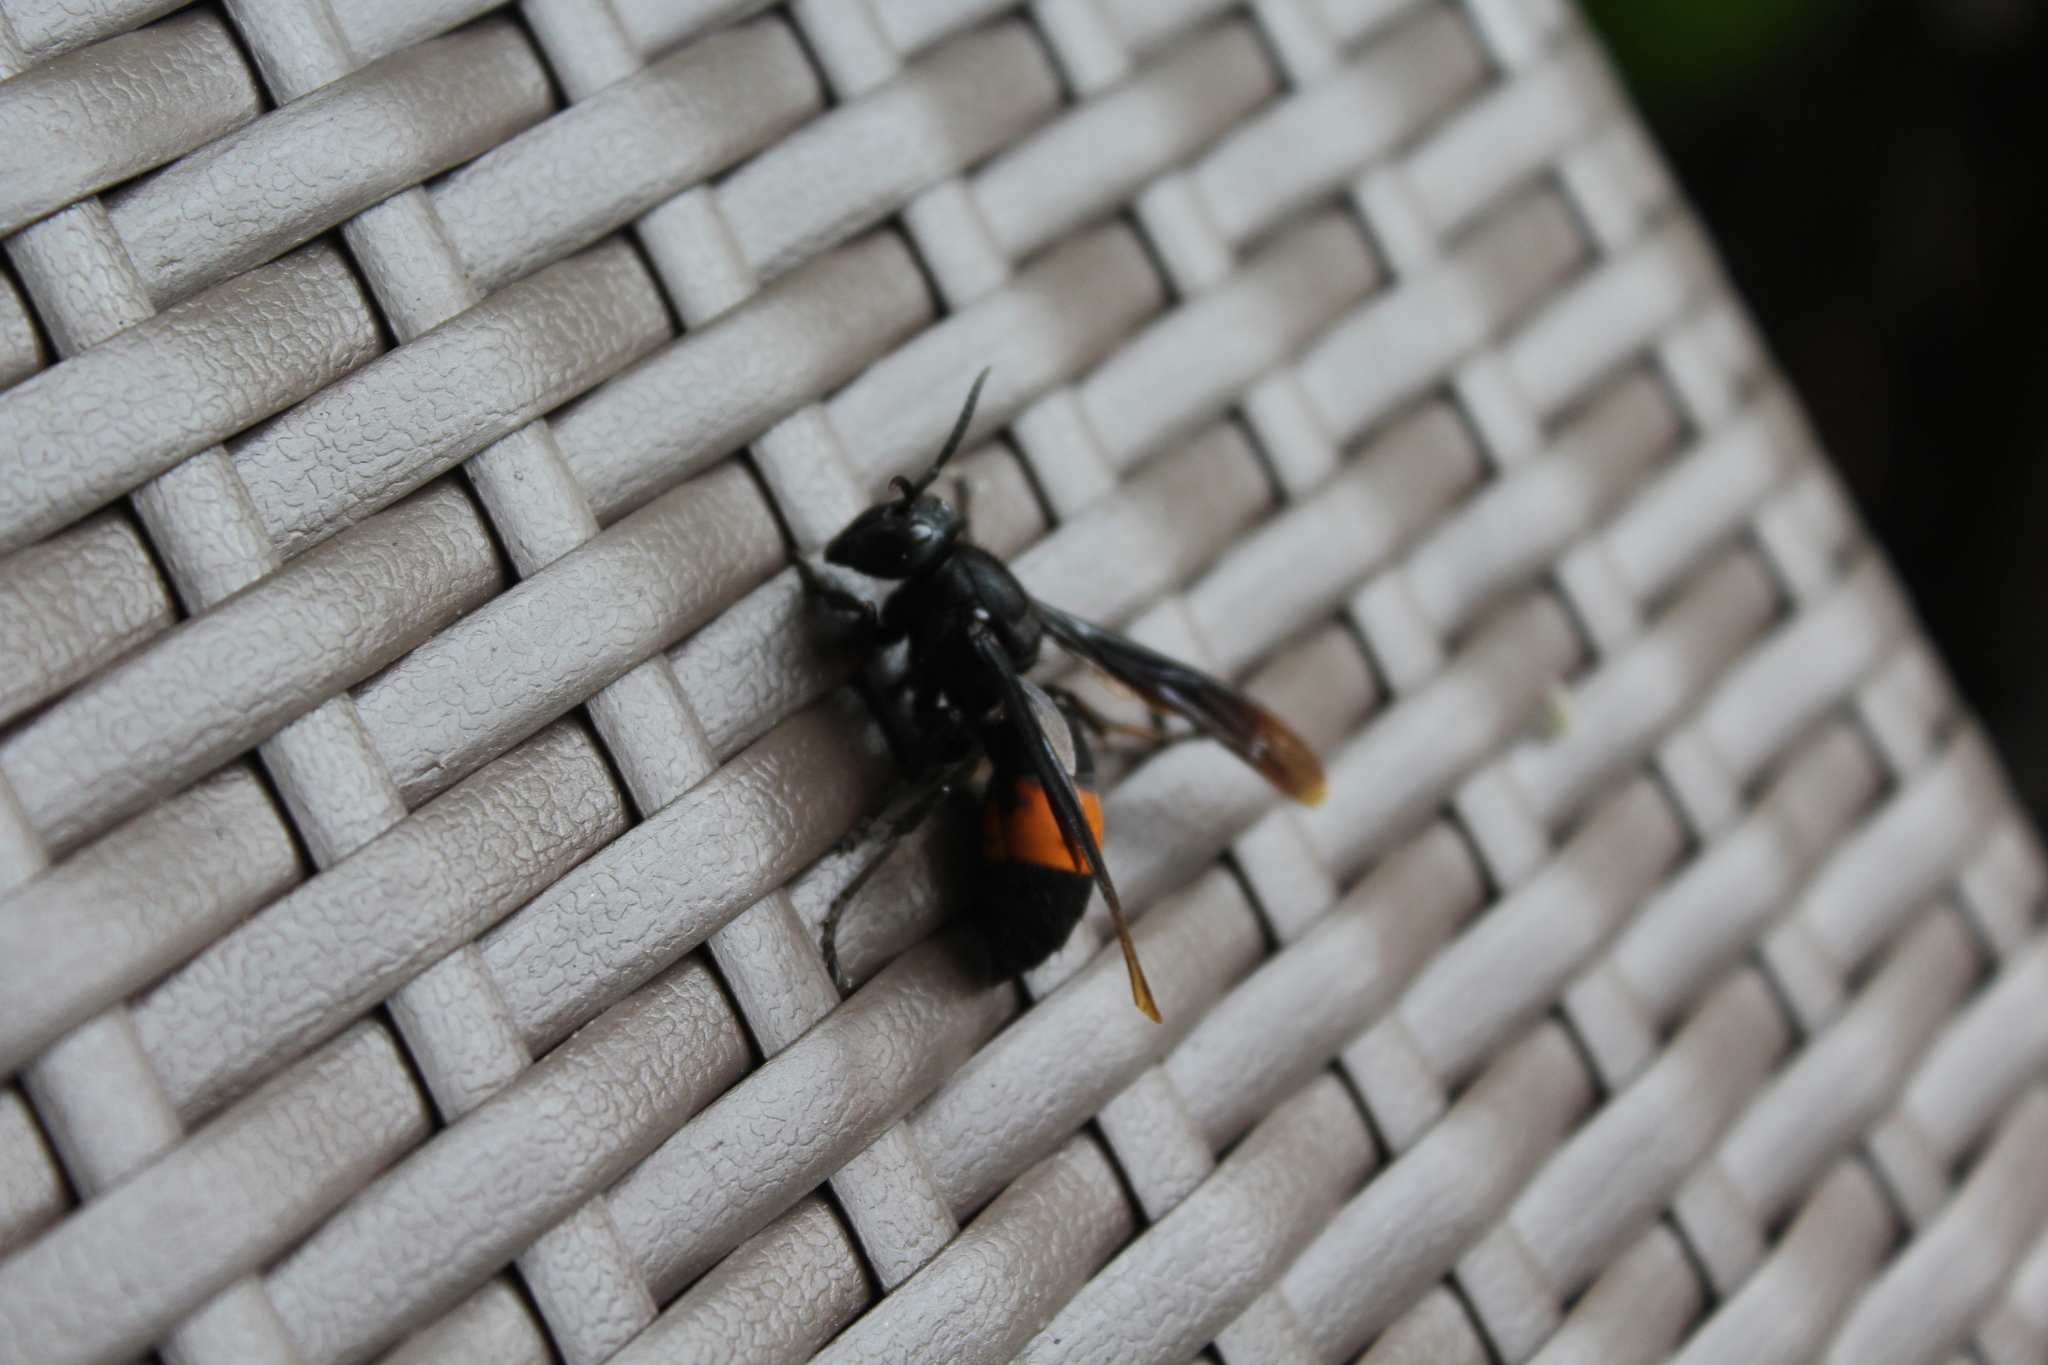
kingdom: Animalia
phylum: Arthropoda
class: Insecta
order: Hymenoptera
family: Vespidae
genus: Vespa
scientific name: Vespa tropica
